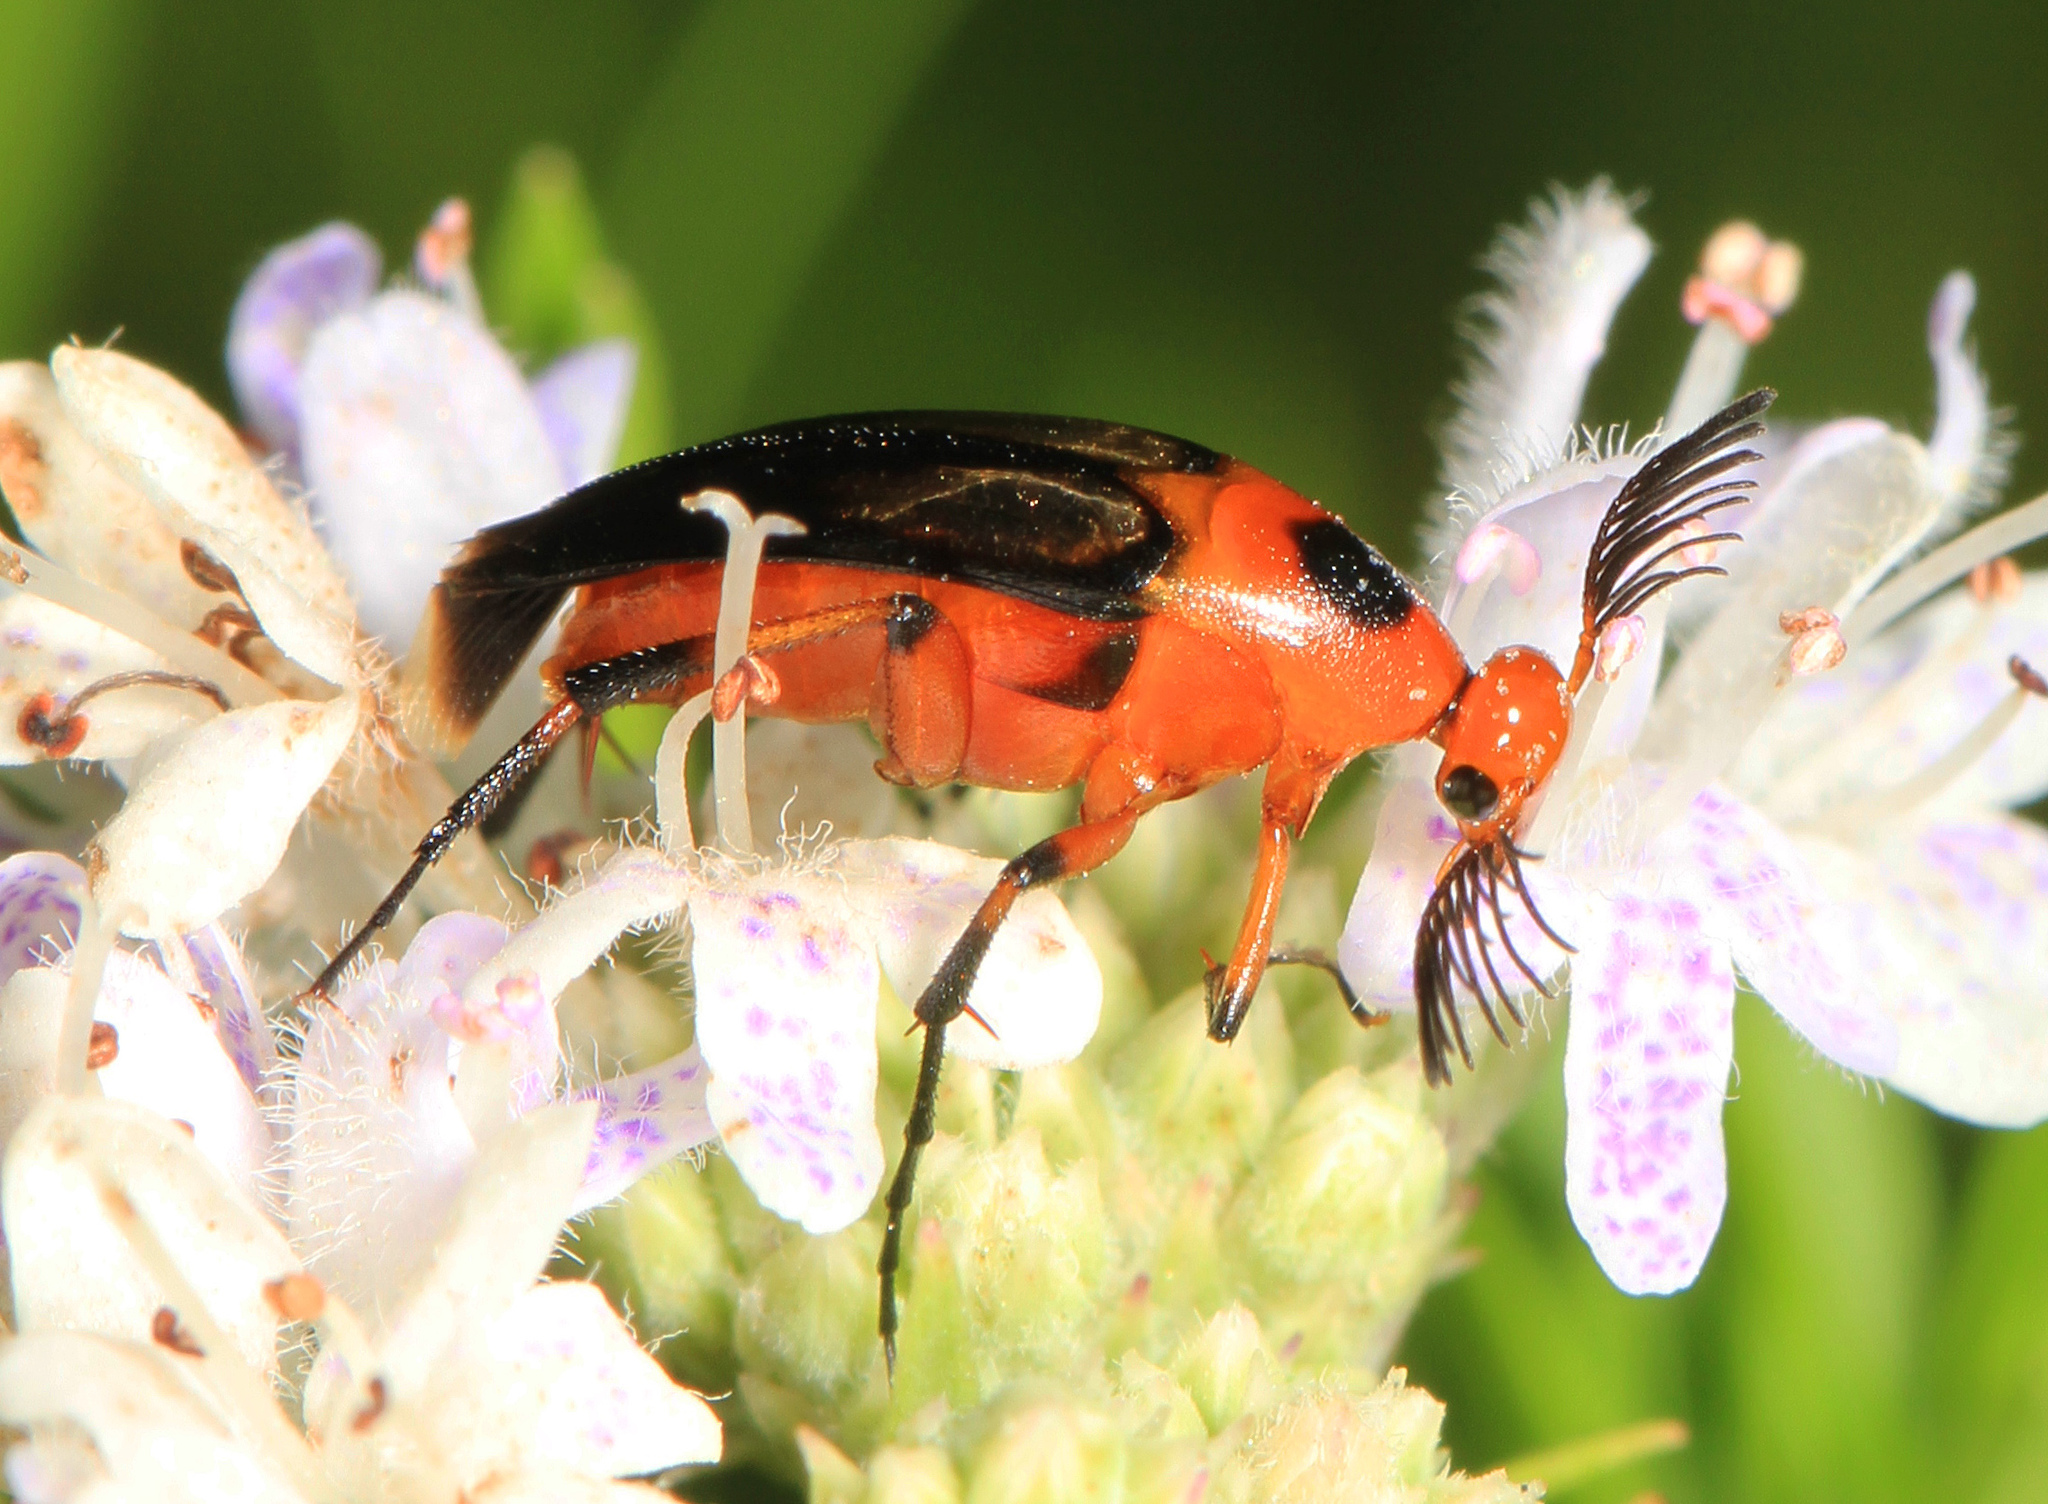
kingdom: Animalia
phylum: Arthropoda
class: Insecta
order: Coleoptera
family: Ripiphoridae
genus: Macrosiagon
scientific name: Macrosiagon limbatum
